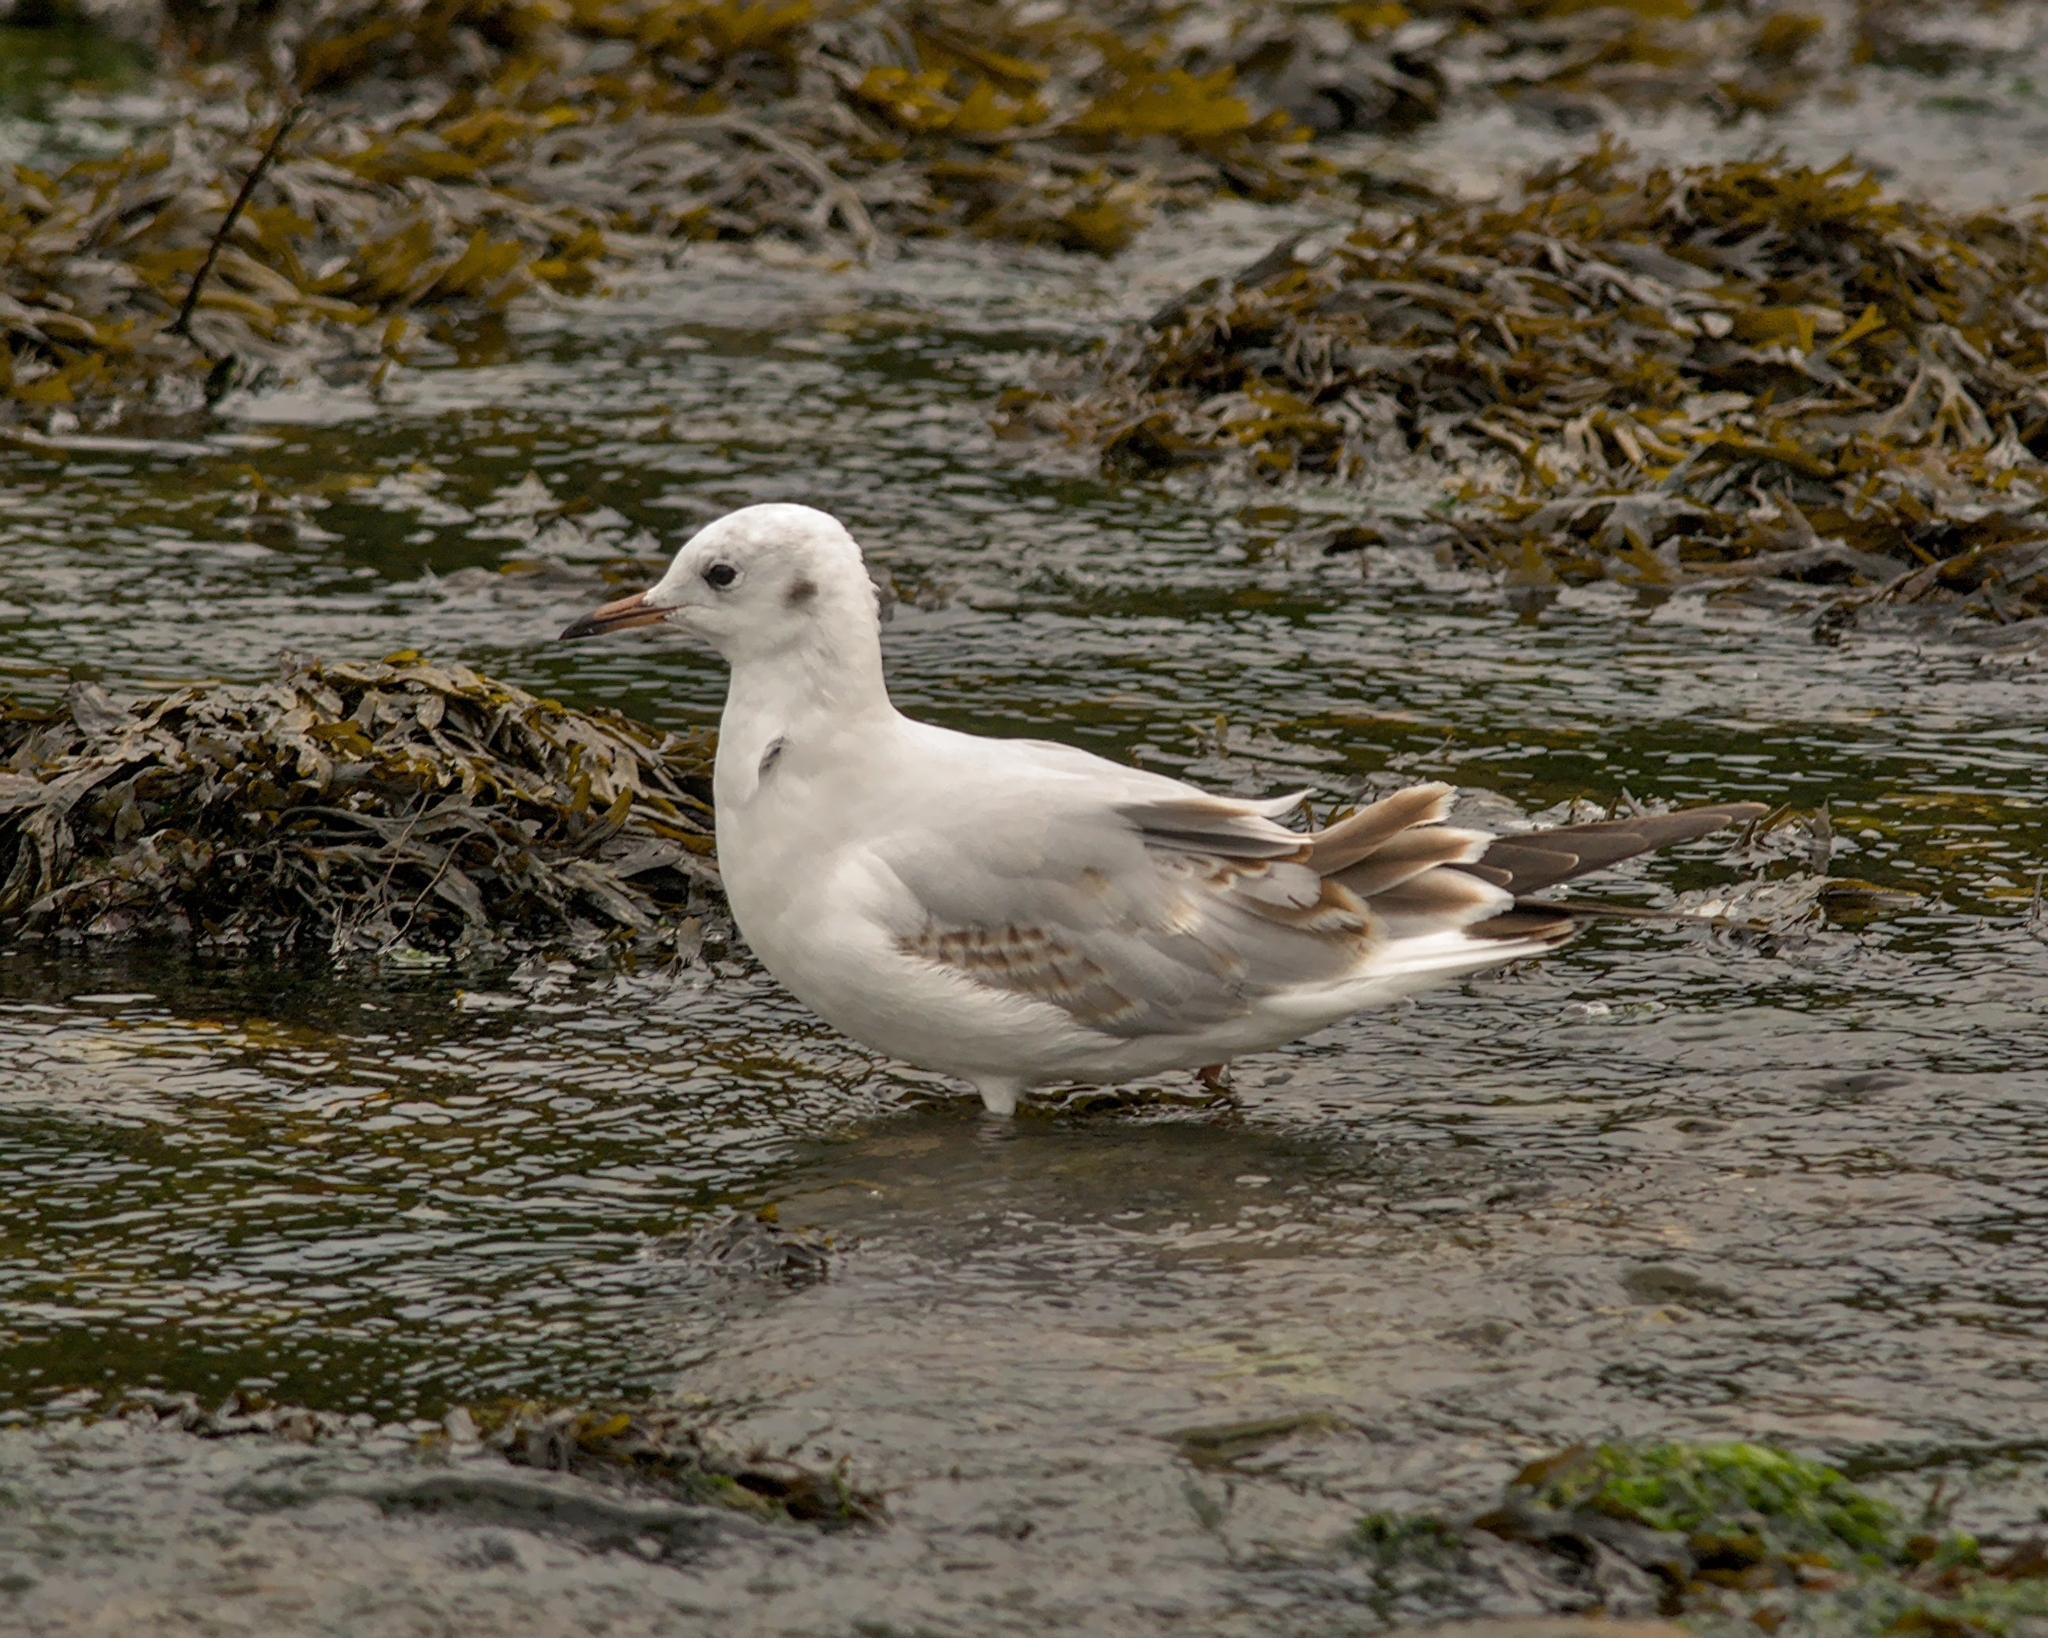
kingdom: Animalia
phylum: Chordata
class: Aves
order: Charadriiformes
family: Laridae
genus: Chroicocephalus
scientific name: Chroicocephalus ridibundus
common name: Black-headed gull
